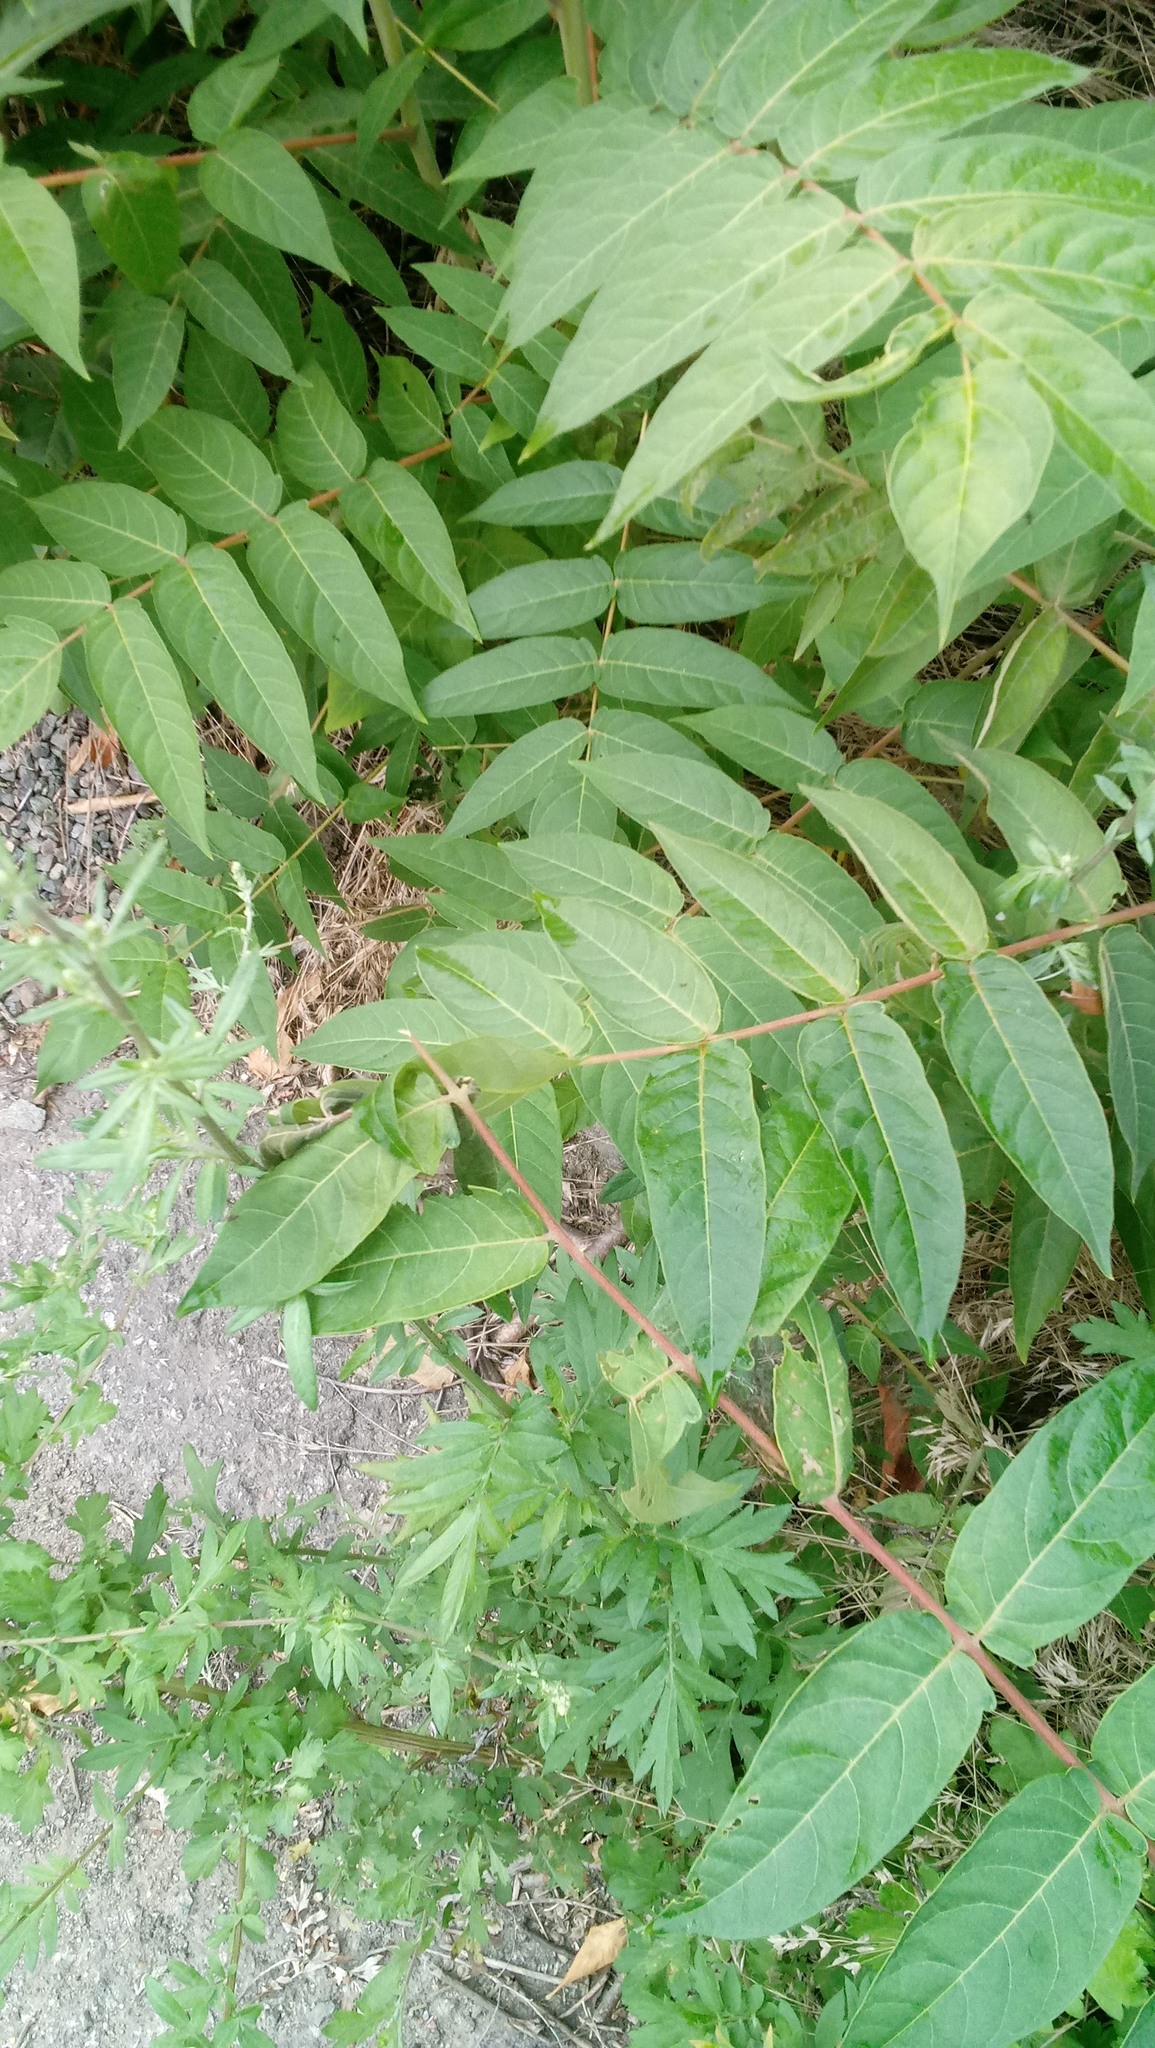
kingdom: Plantae
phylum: Tracheophyta
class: Magnoliopsida
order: Sapindales
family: Simaroubaceae
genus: Ailanthus
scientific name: Ailanthus altissima
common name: Tree-of-heaven
